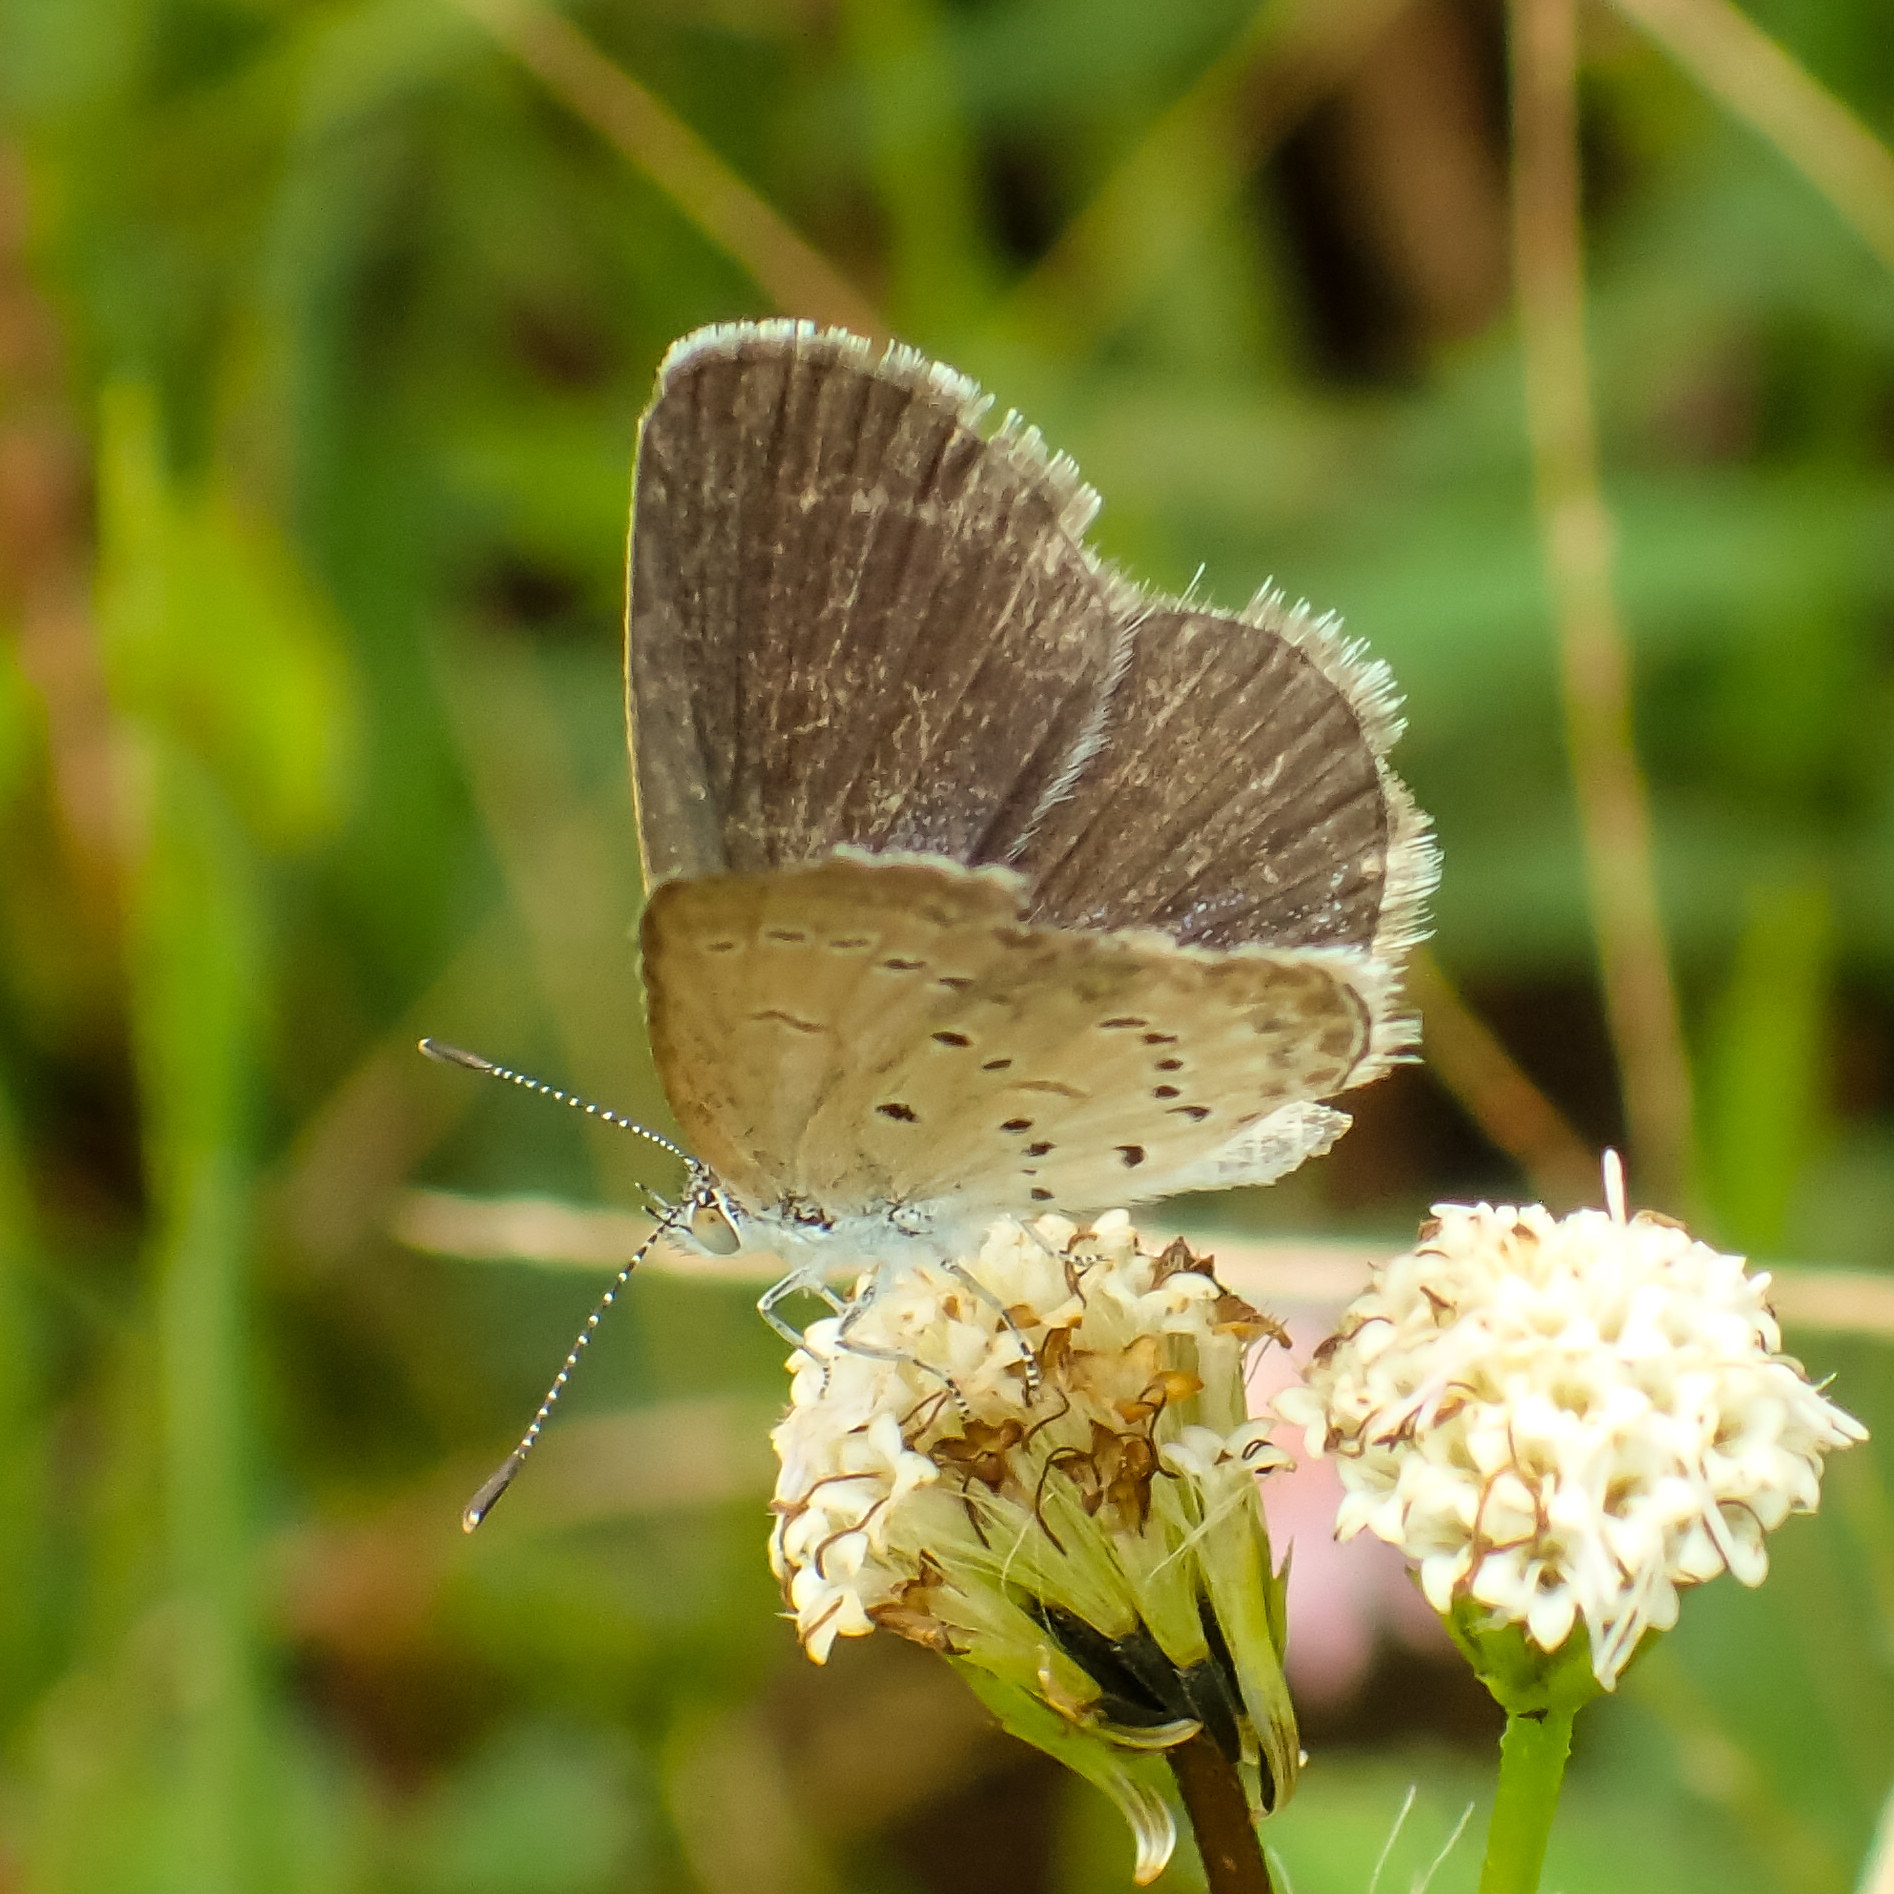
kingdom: Animalia
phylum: Arthropoda
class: Insecta
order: Lepidoptera
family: Lycaenidae
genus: Zizina
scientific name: Zizina otis
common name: Lesser grass blue
